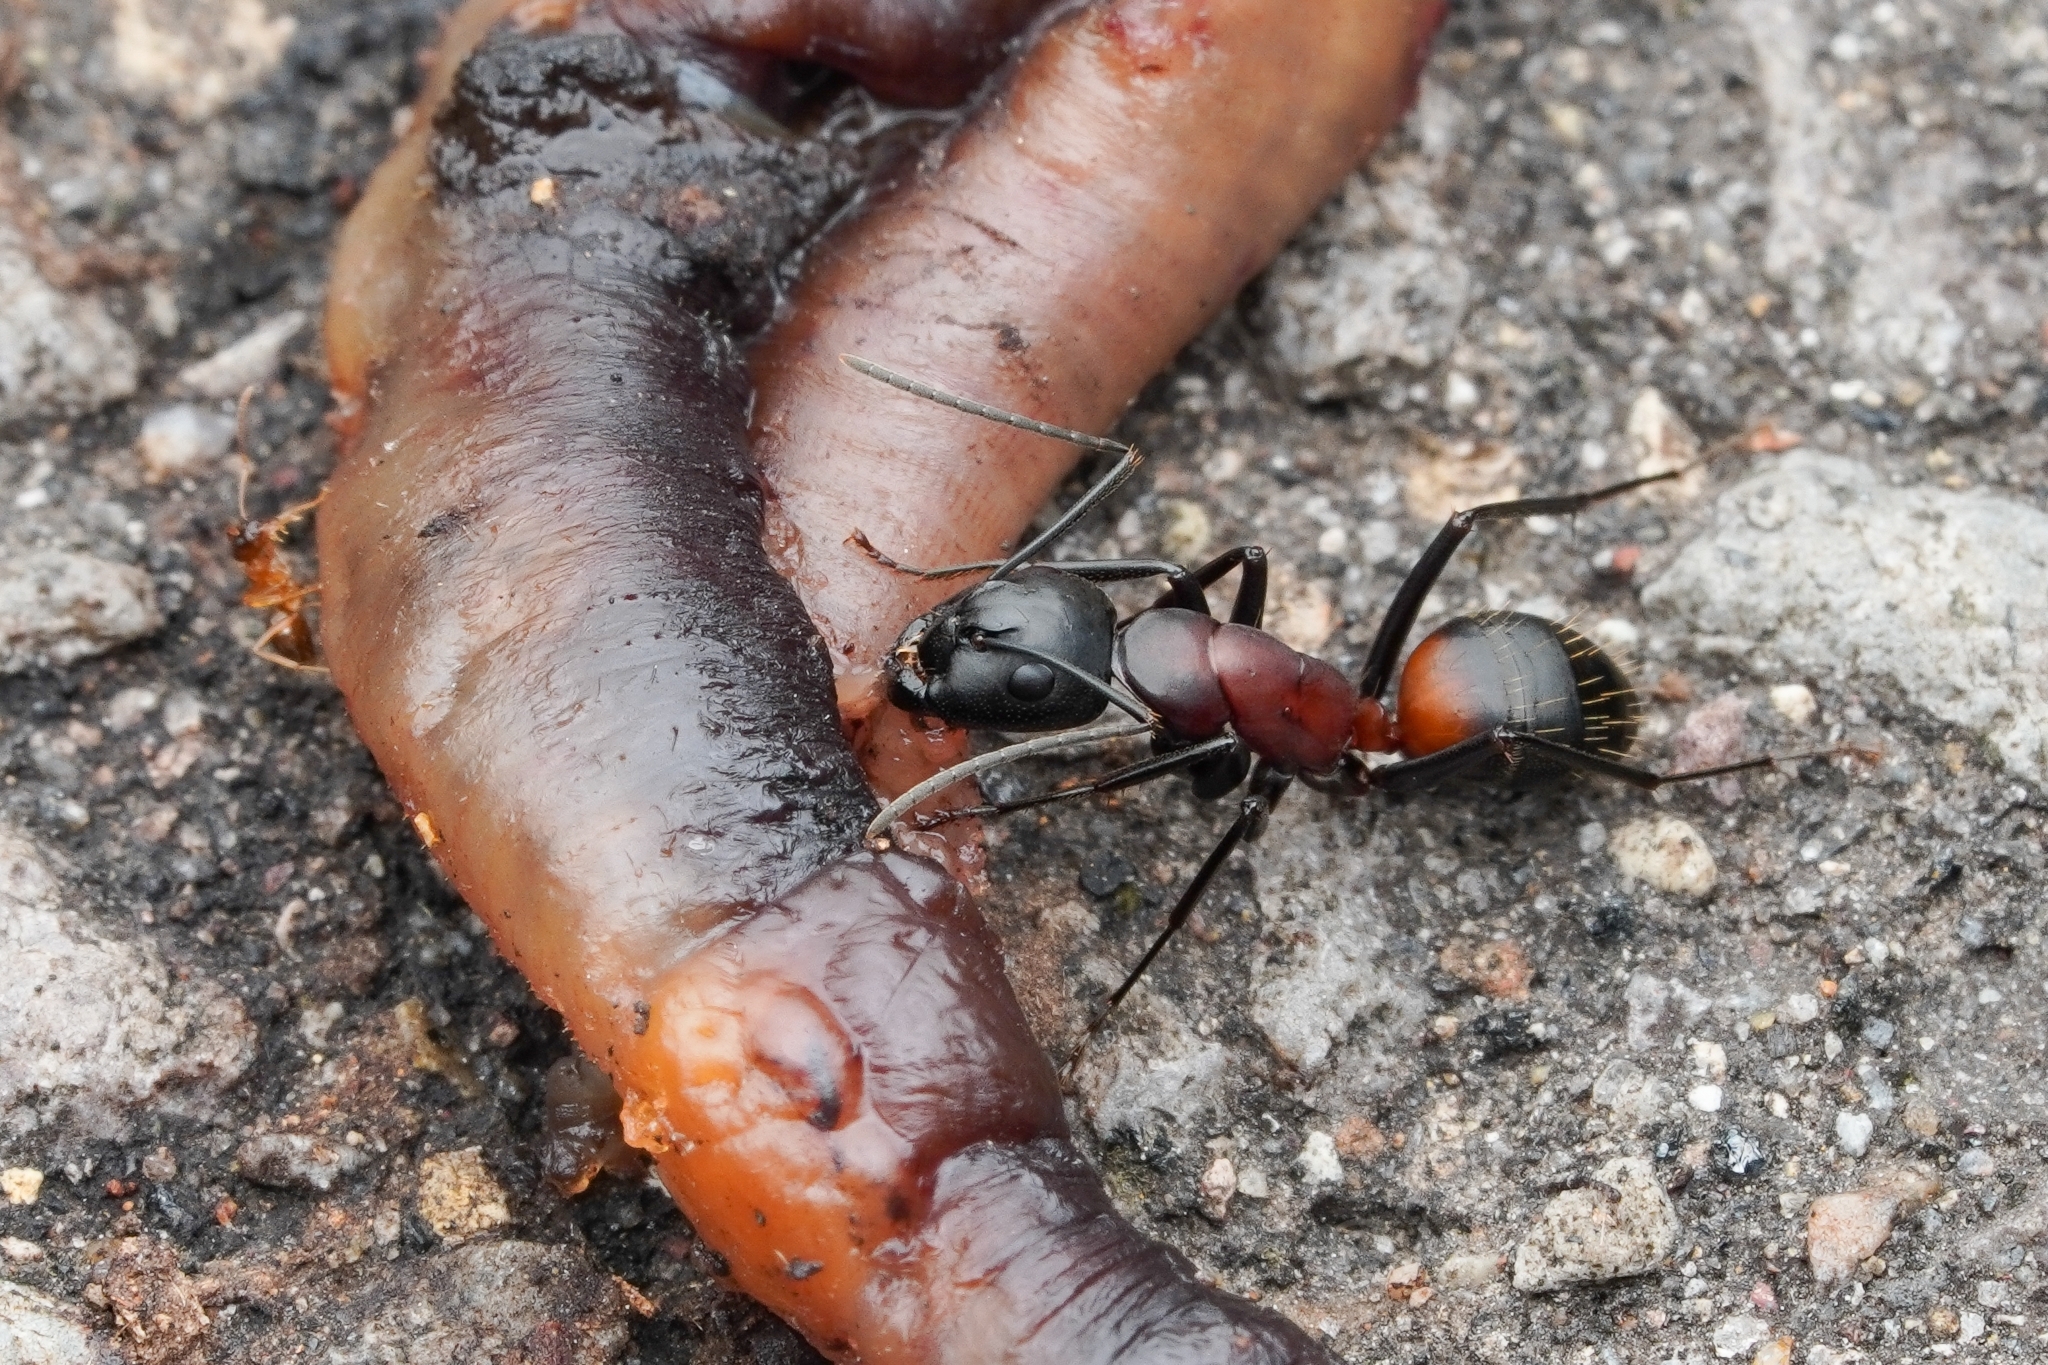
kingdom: Animalia
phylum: Arthropoda
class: Insecta
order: Hymenoptera
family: Formicidae
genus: Camponotus
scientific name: Camponotus obscuripes
